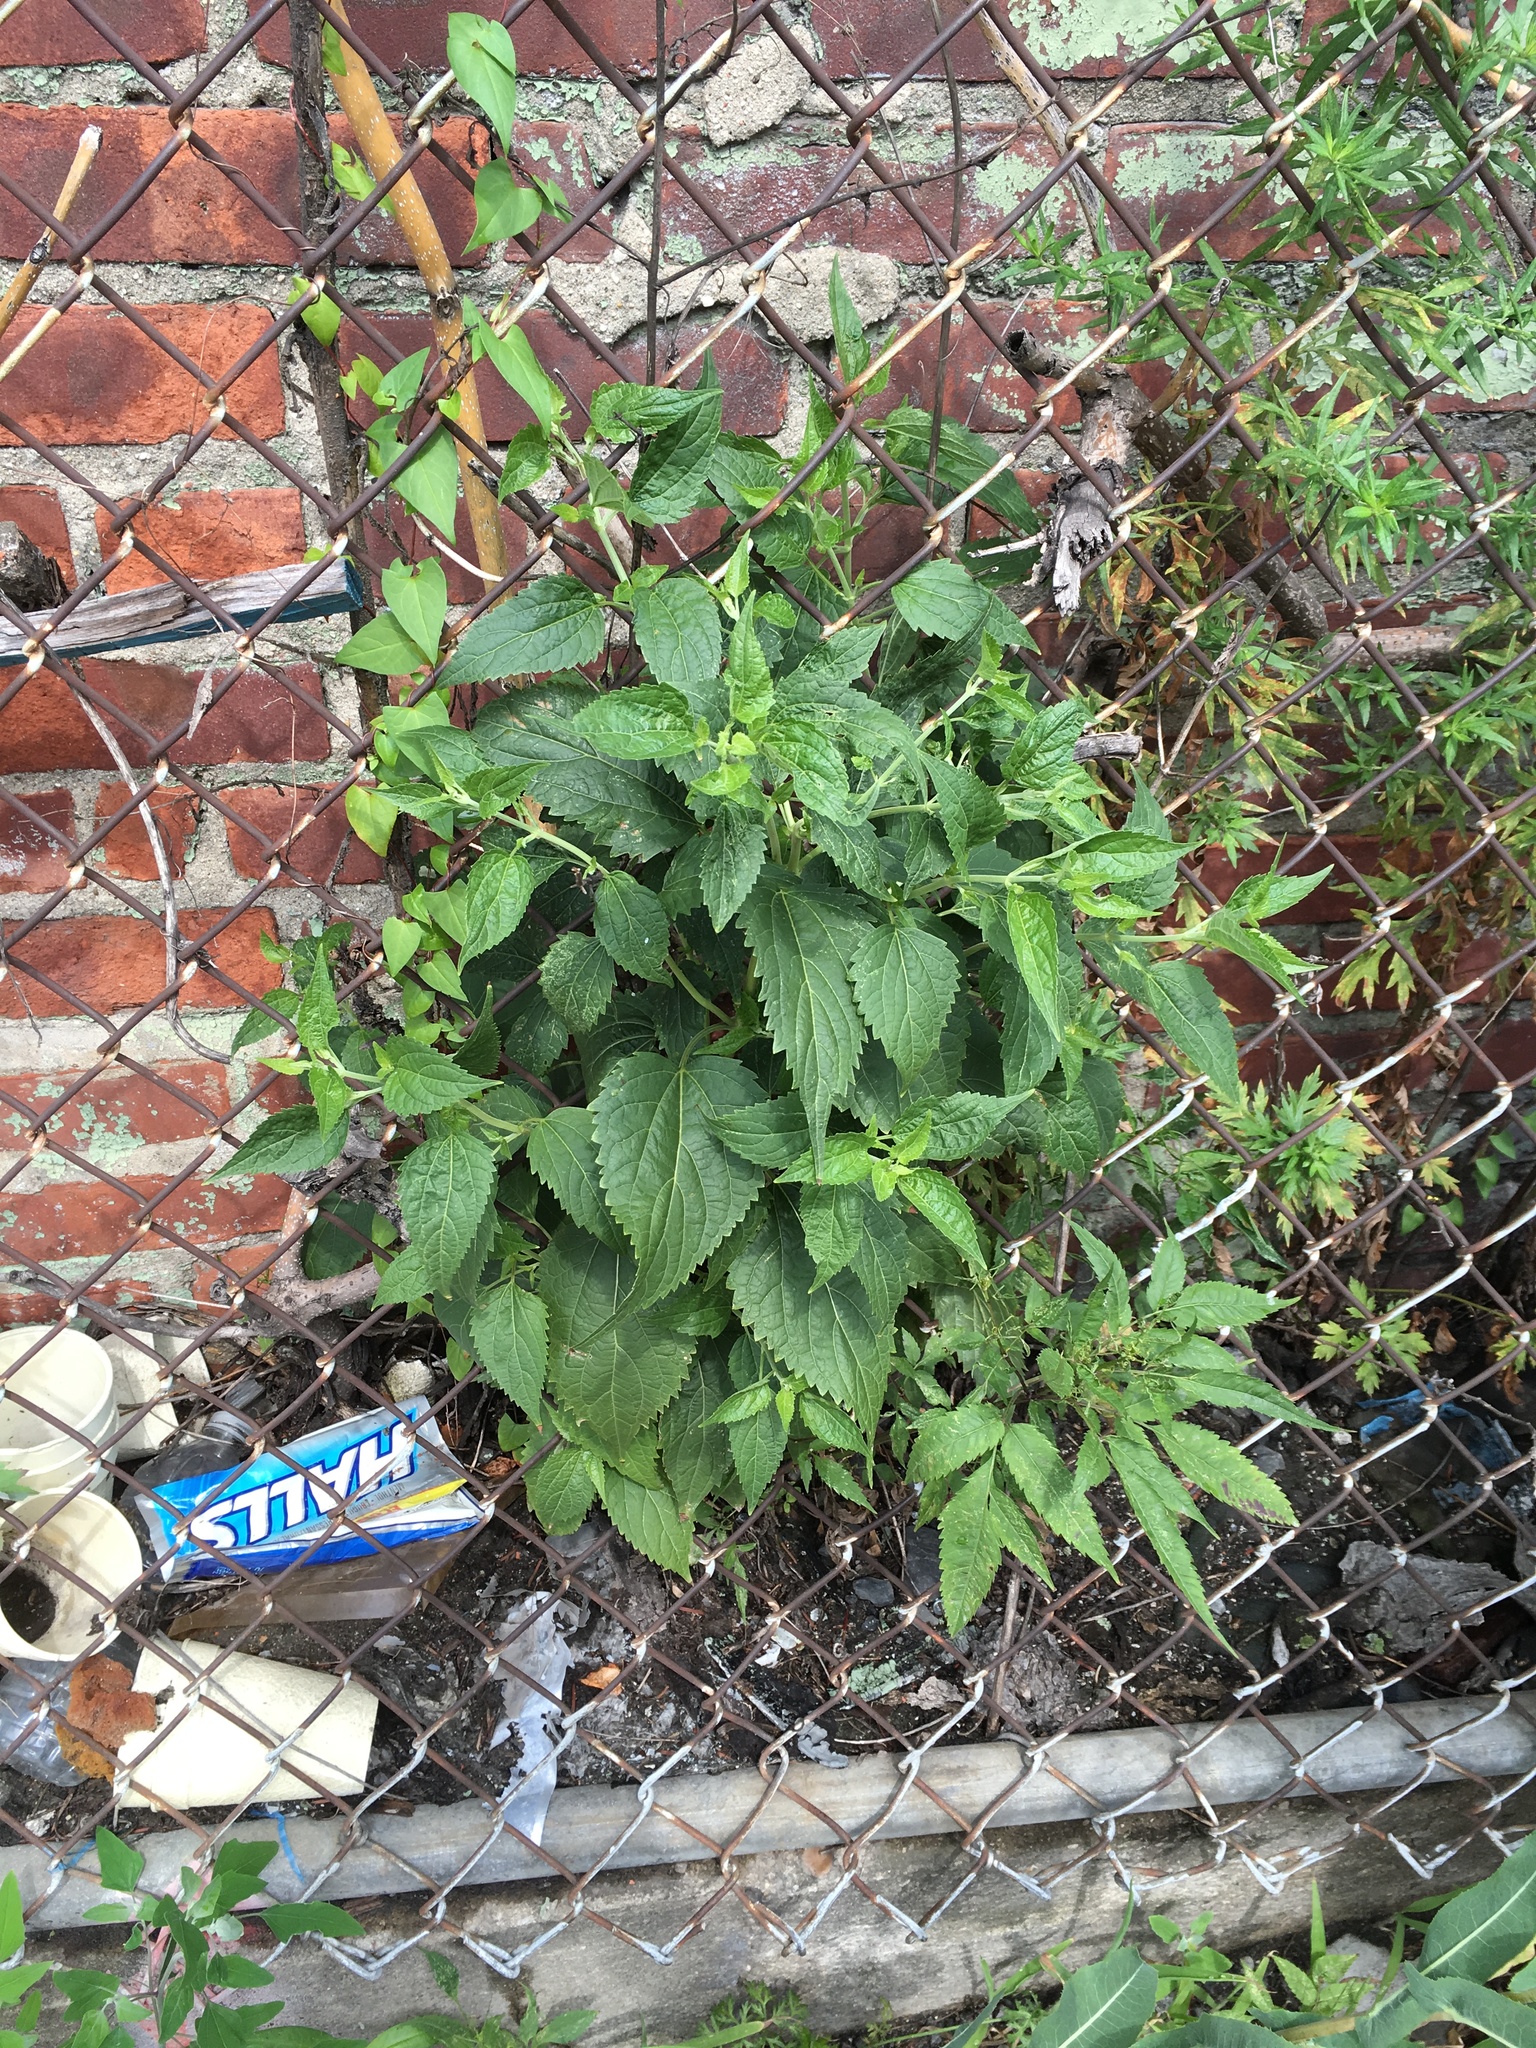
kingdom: Plantae
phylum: Tracheophyta
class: Magnoliopsida
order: Asterales
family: Asteraceae
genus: Ageratina
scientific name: Ageratina altissima
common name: White snakeroot
